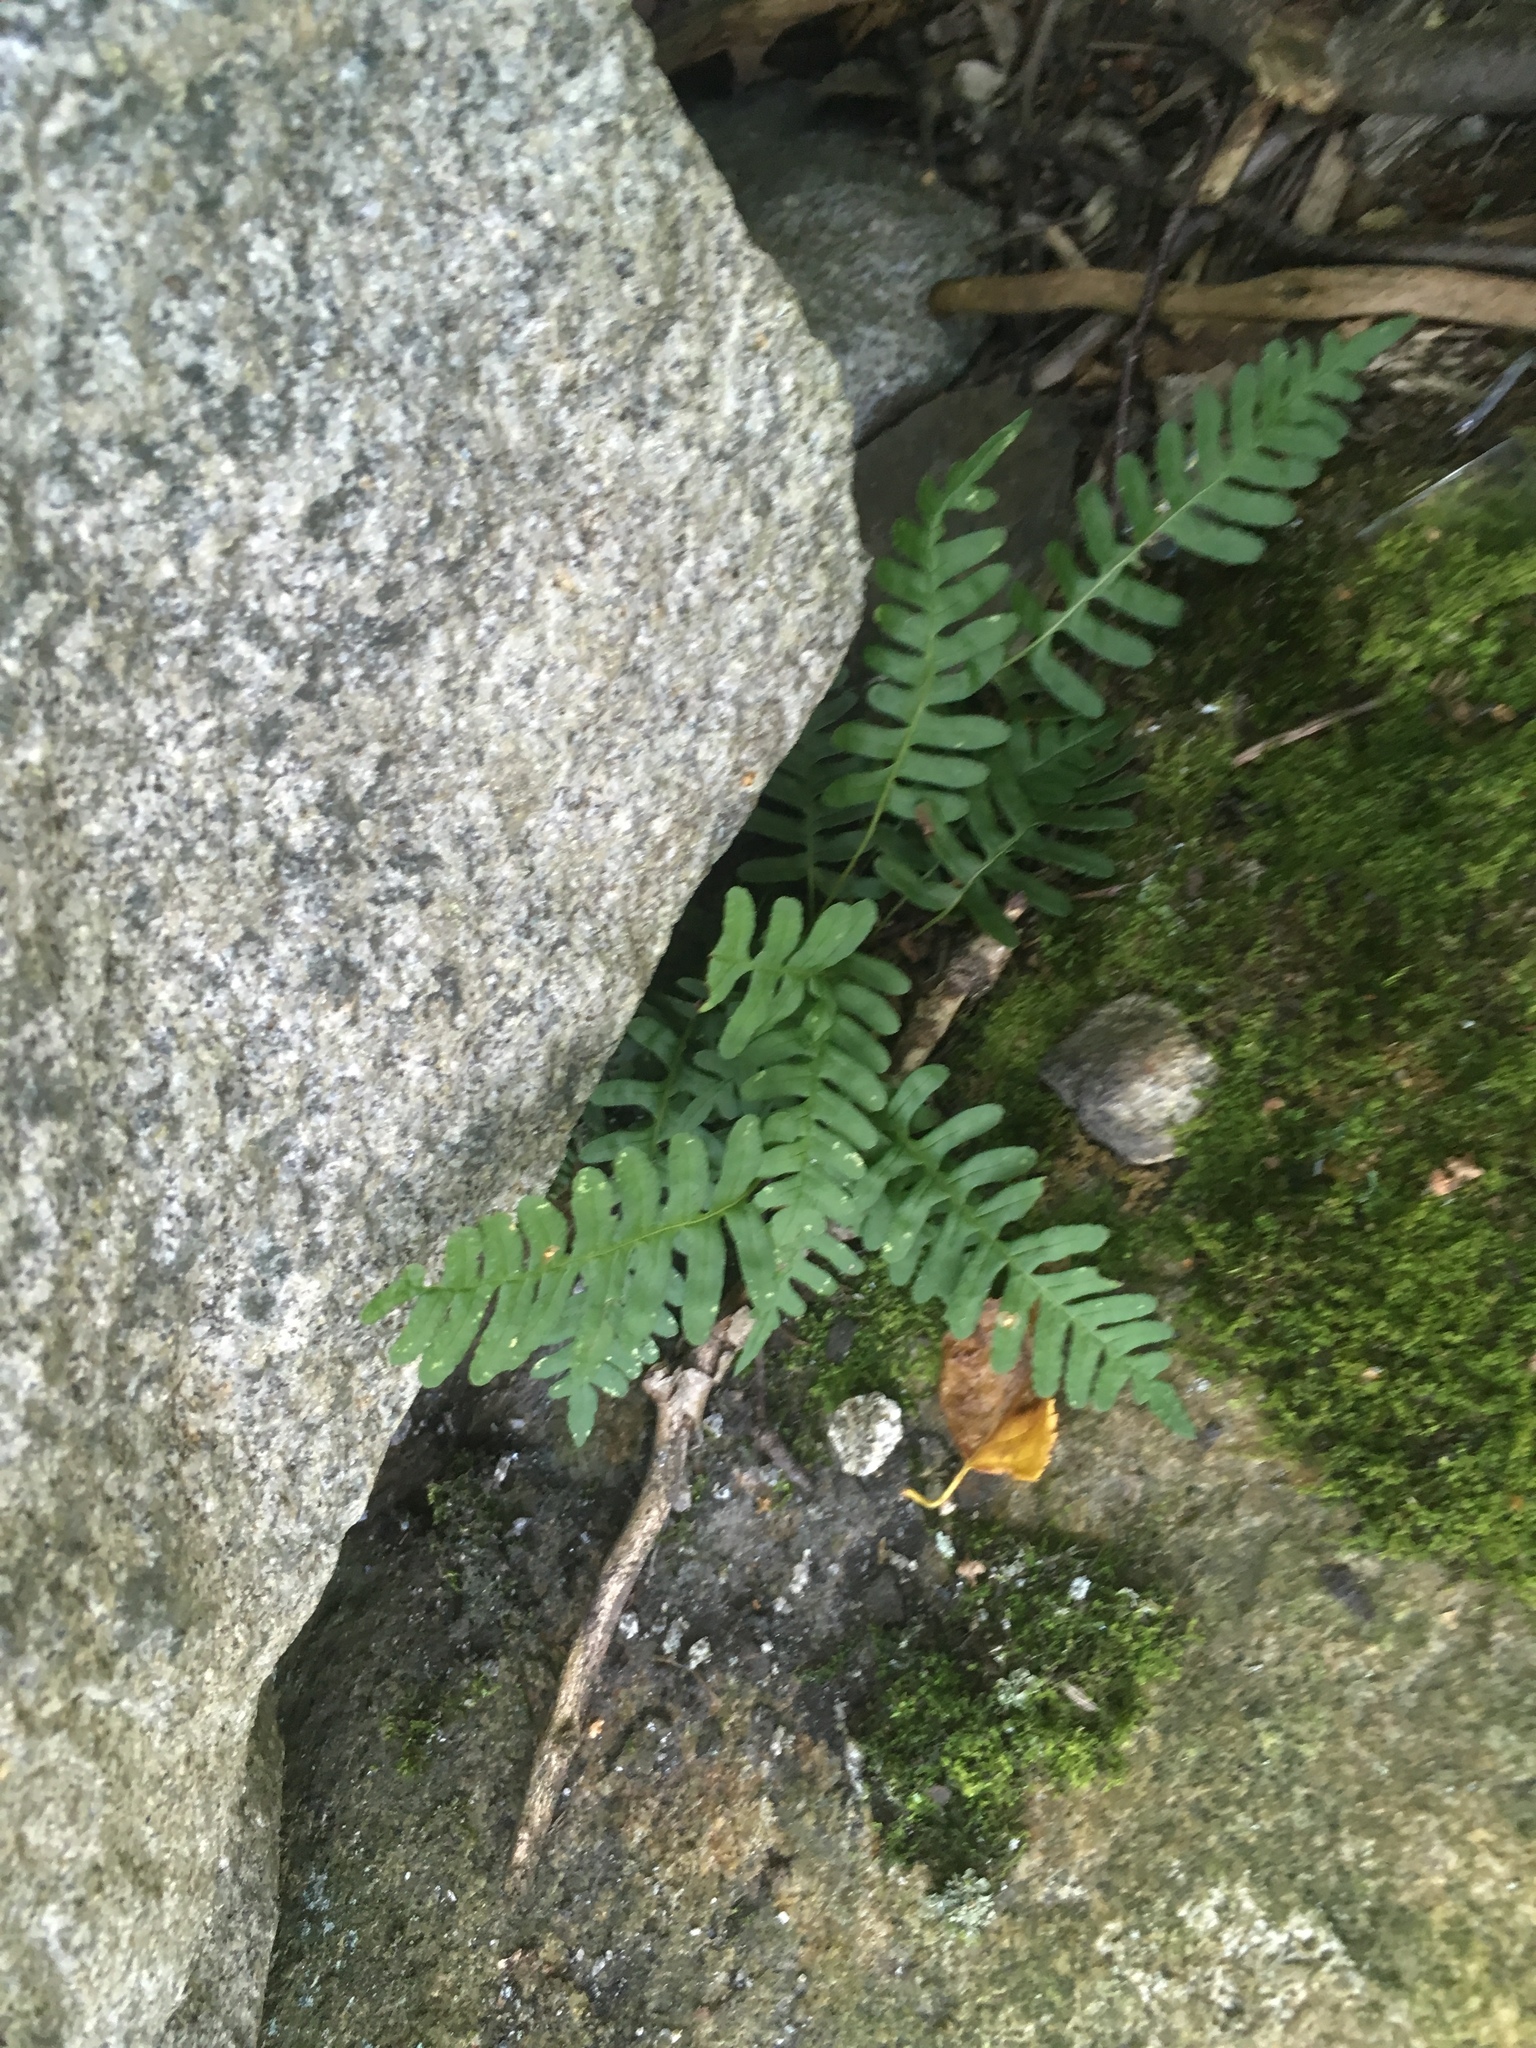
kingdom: Plantae
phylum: Tracheophyta
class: Polypodiopsida
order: Polypodiales
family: Polypodiaceae
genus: Polypodium
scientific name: Polypodium virginianum
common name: American wall fern
